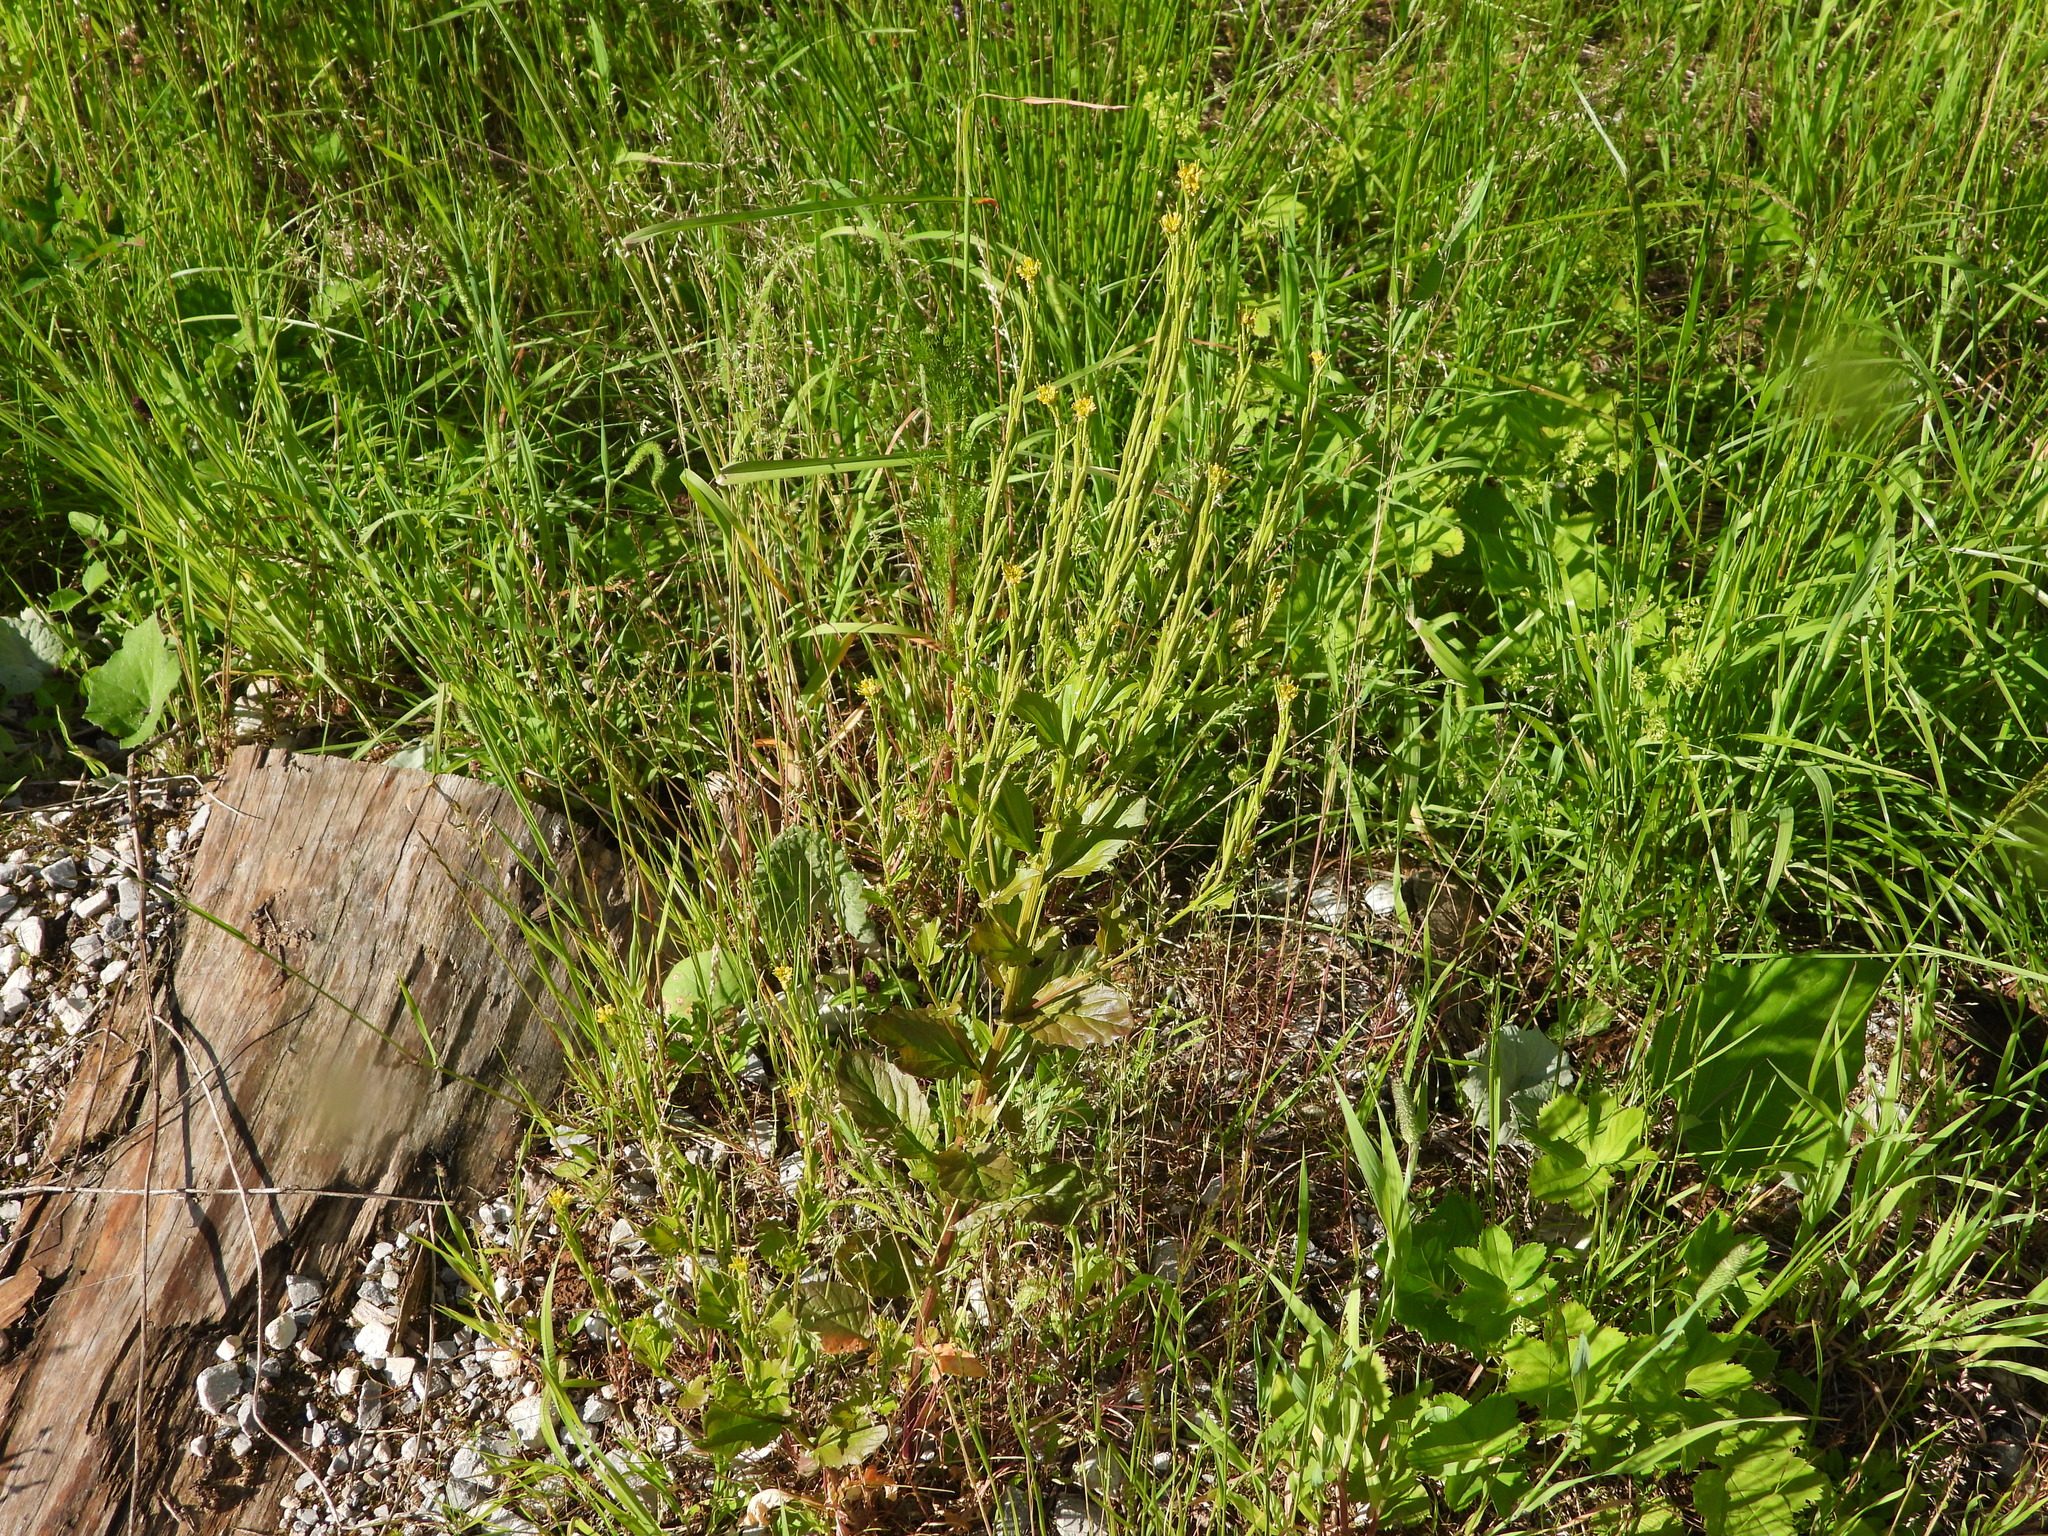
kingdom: Plantae
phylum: Tracheophyta
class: Magnoliopsida
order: Brassicales
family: Brassicaceae
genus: Barbarea
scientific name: Barbarea stricta
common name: Small-flowered winter-cress
